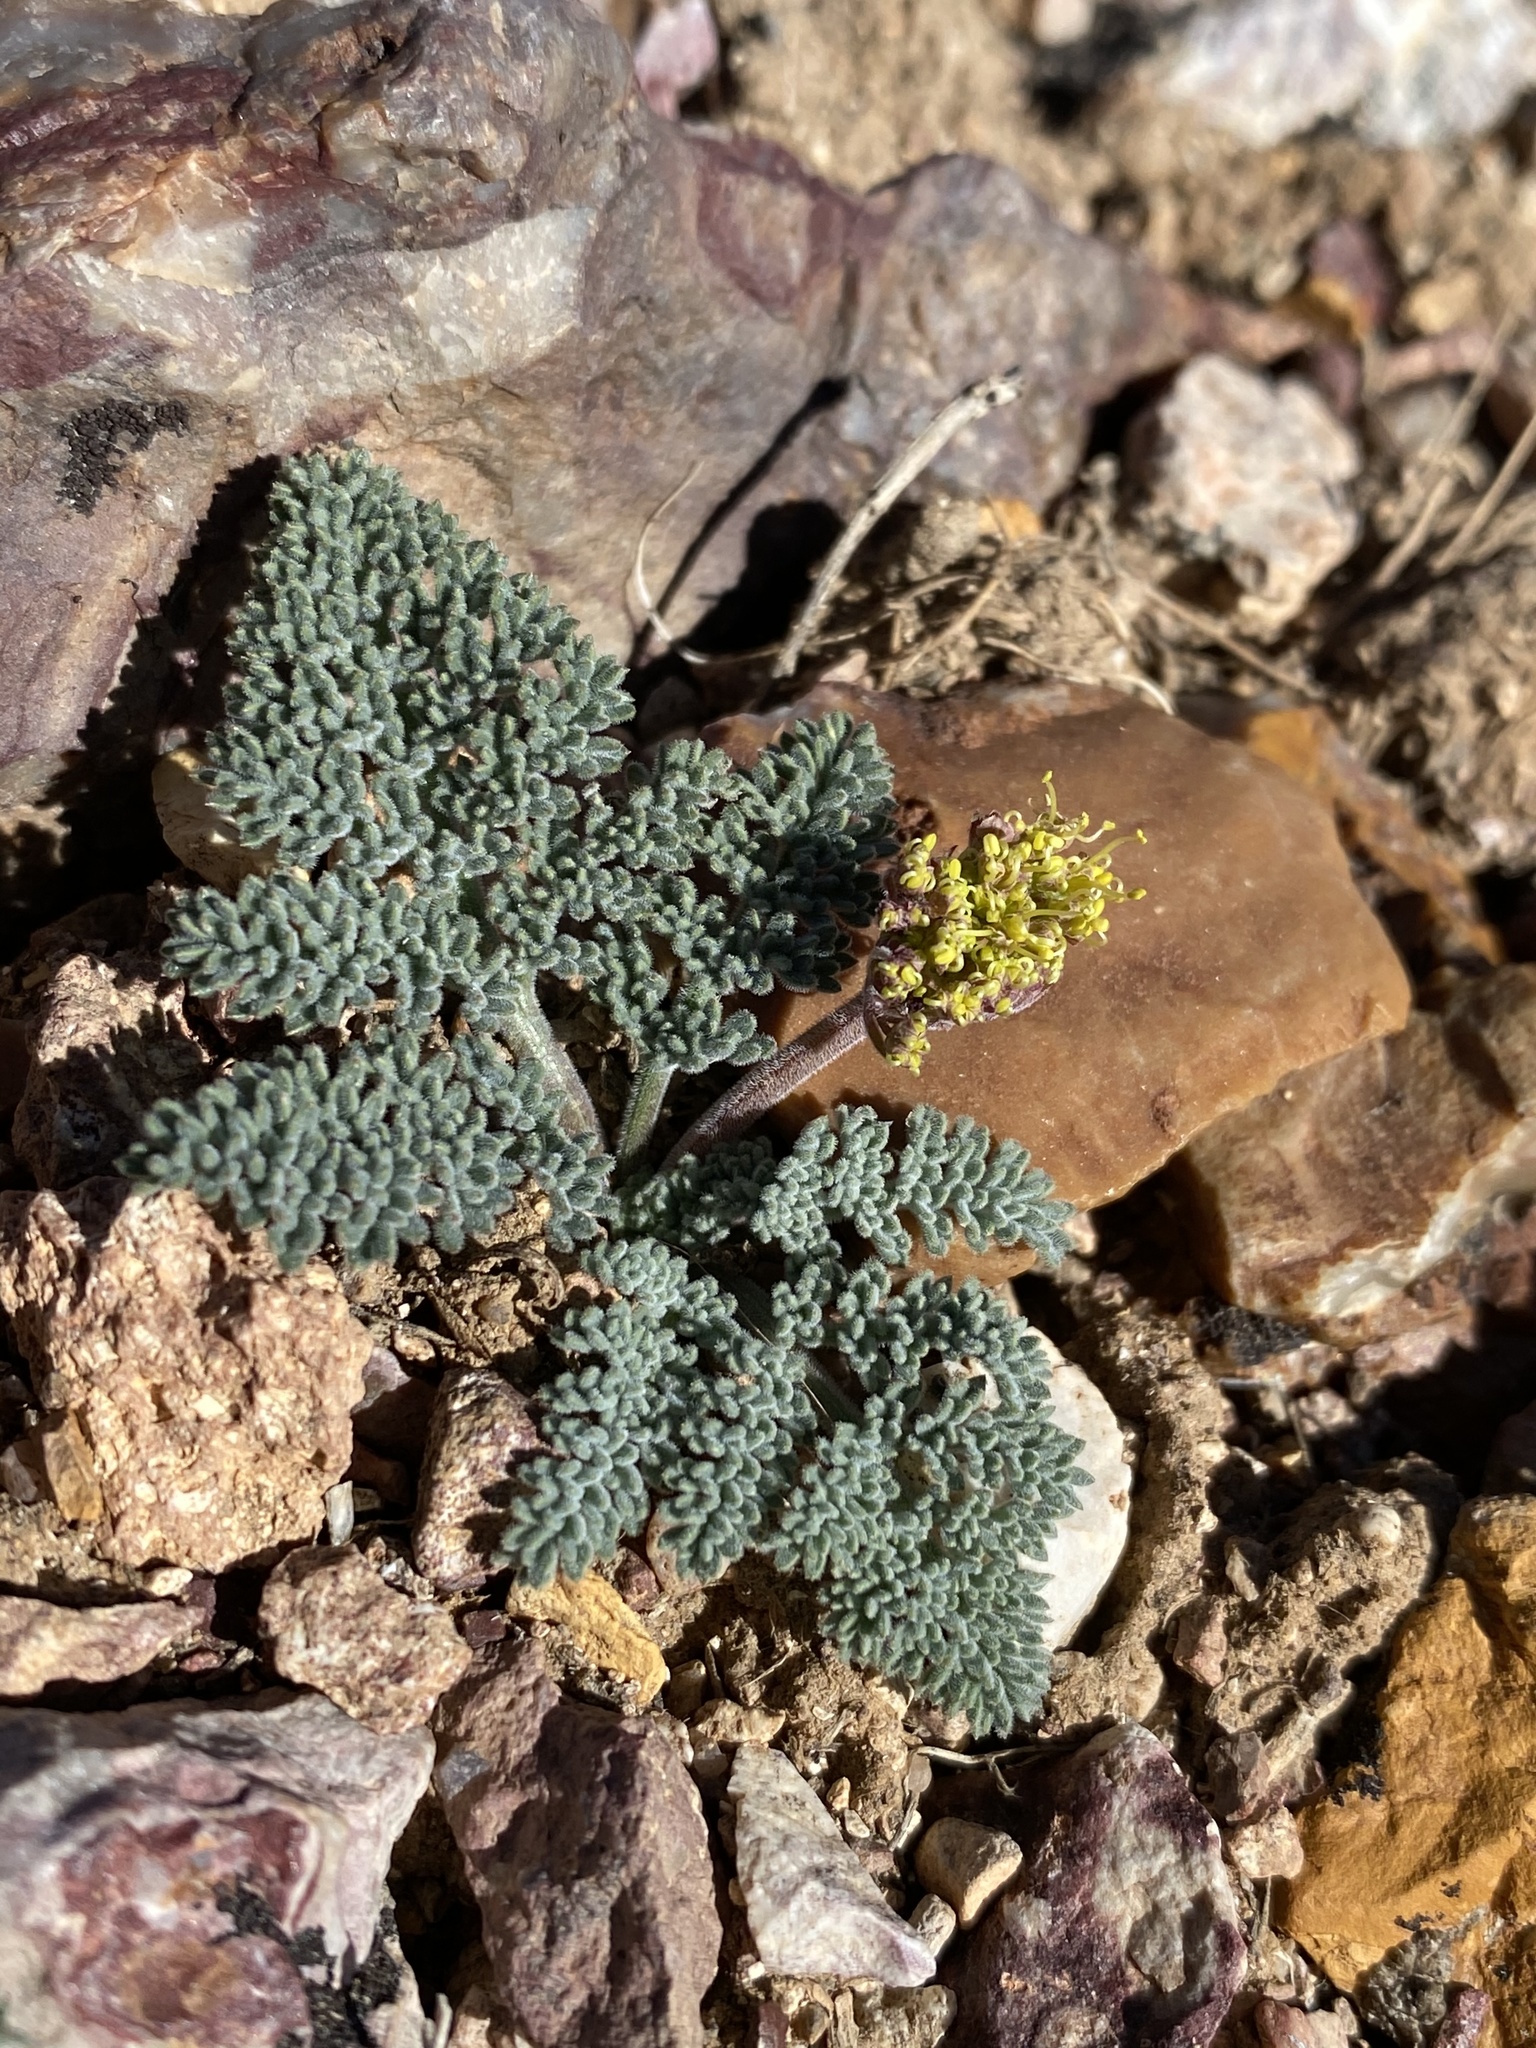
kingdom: Plantae
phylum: Tracheophyta
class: Magnoliopsida
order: Apiales
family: Apiaceae
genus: Lomatium
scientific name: Lomatium foeniculaceum
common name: Desert-parsley
